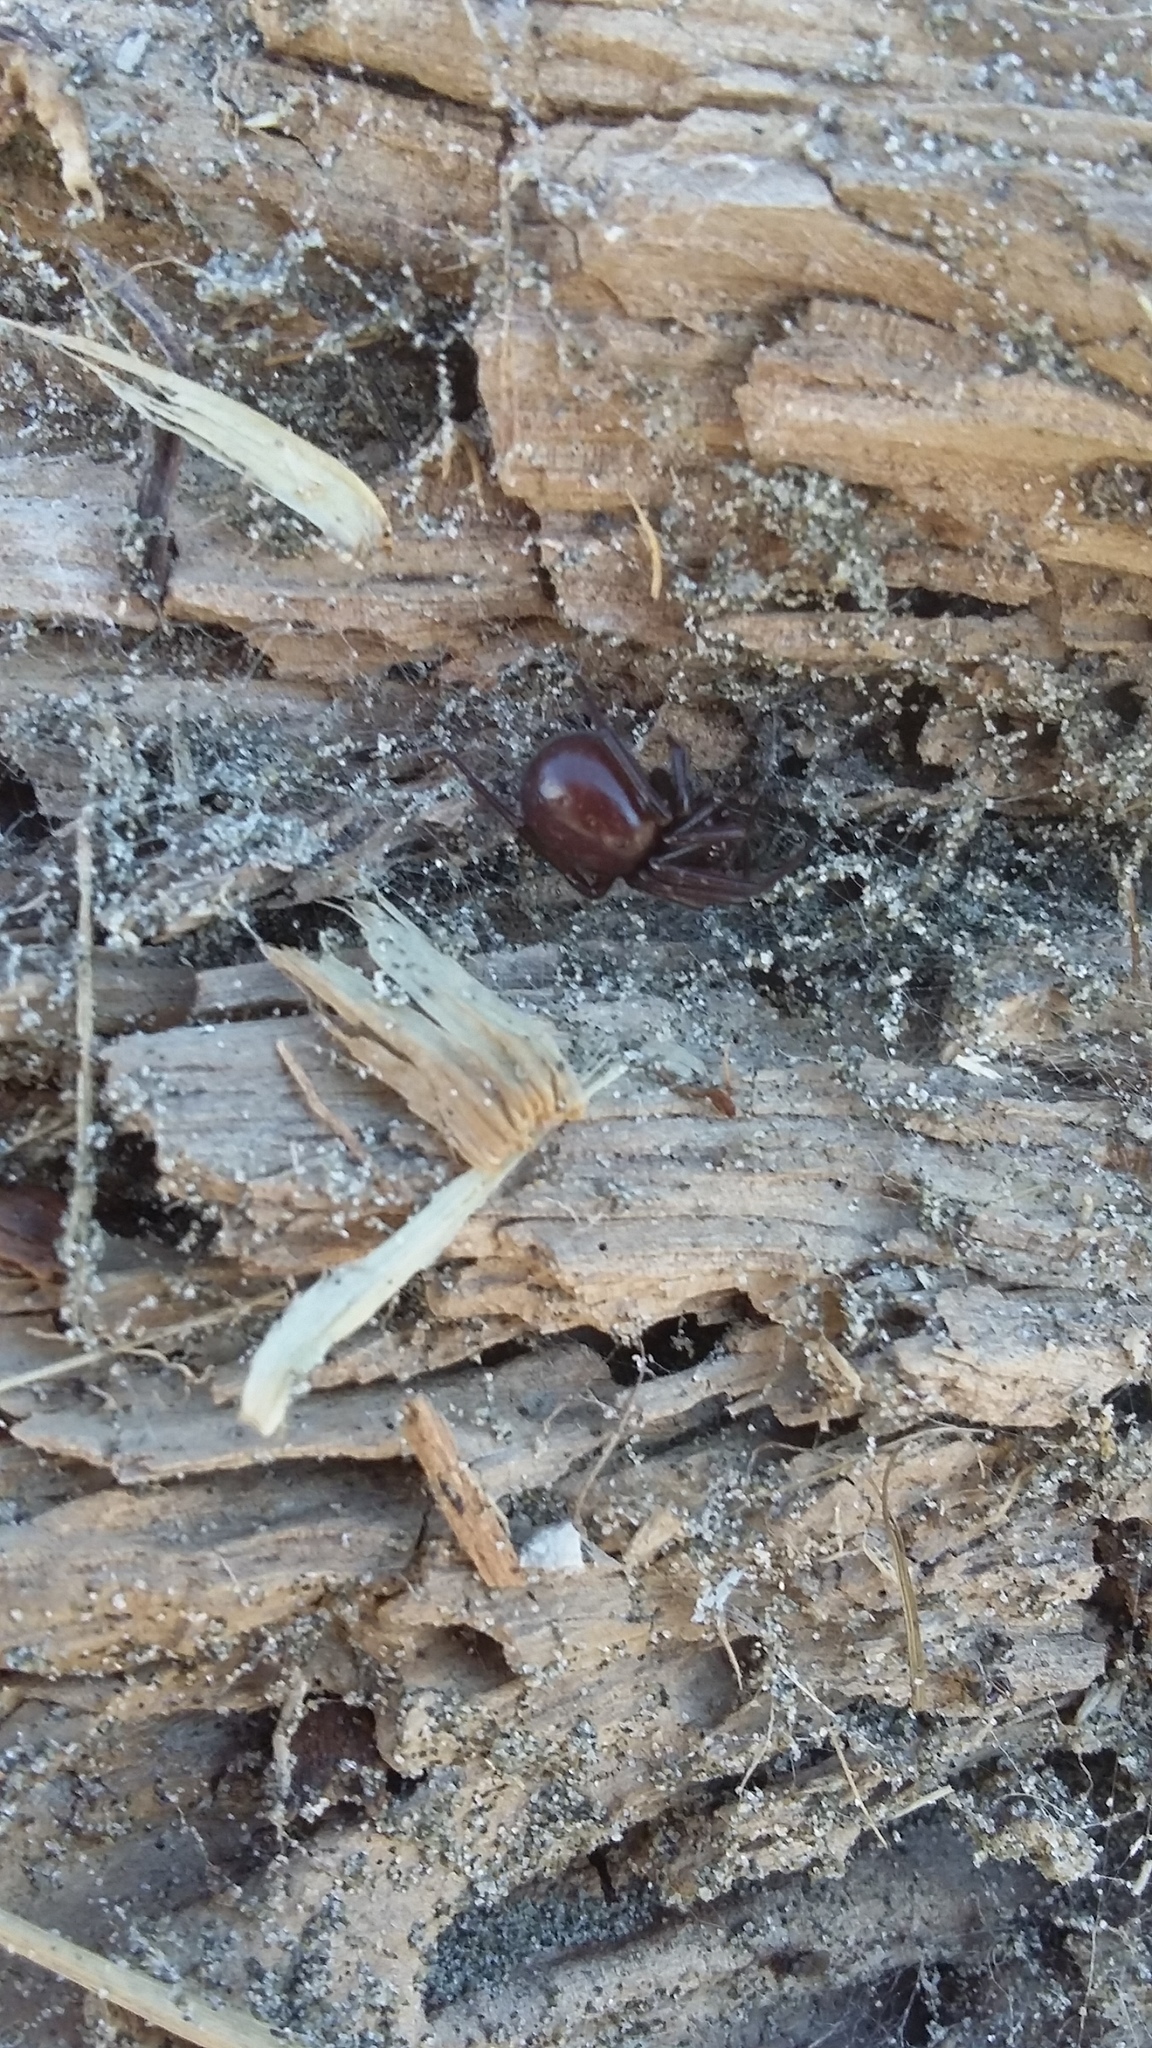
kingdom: Animalia
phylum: Arthropoda
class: Arachnida
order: Araneae
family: Theridiidae
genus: Steatoda
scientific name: Steatoda capensis
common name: Cobweb weaver
